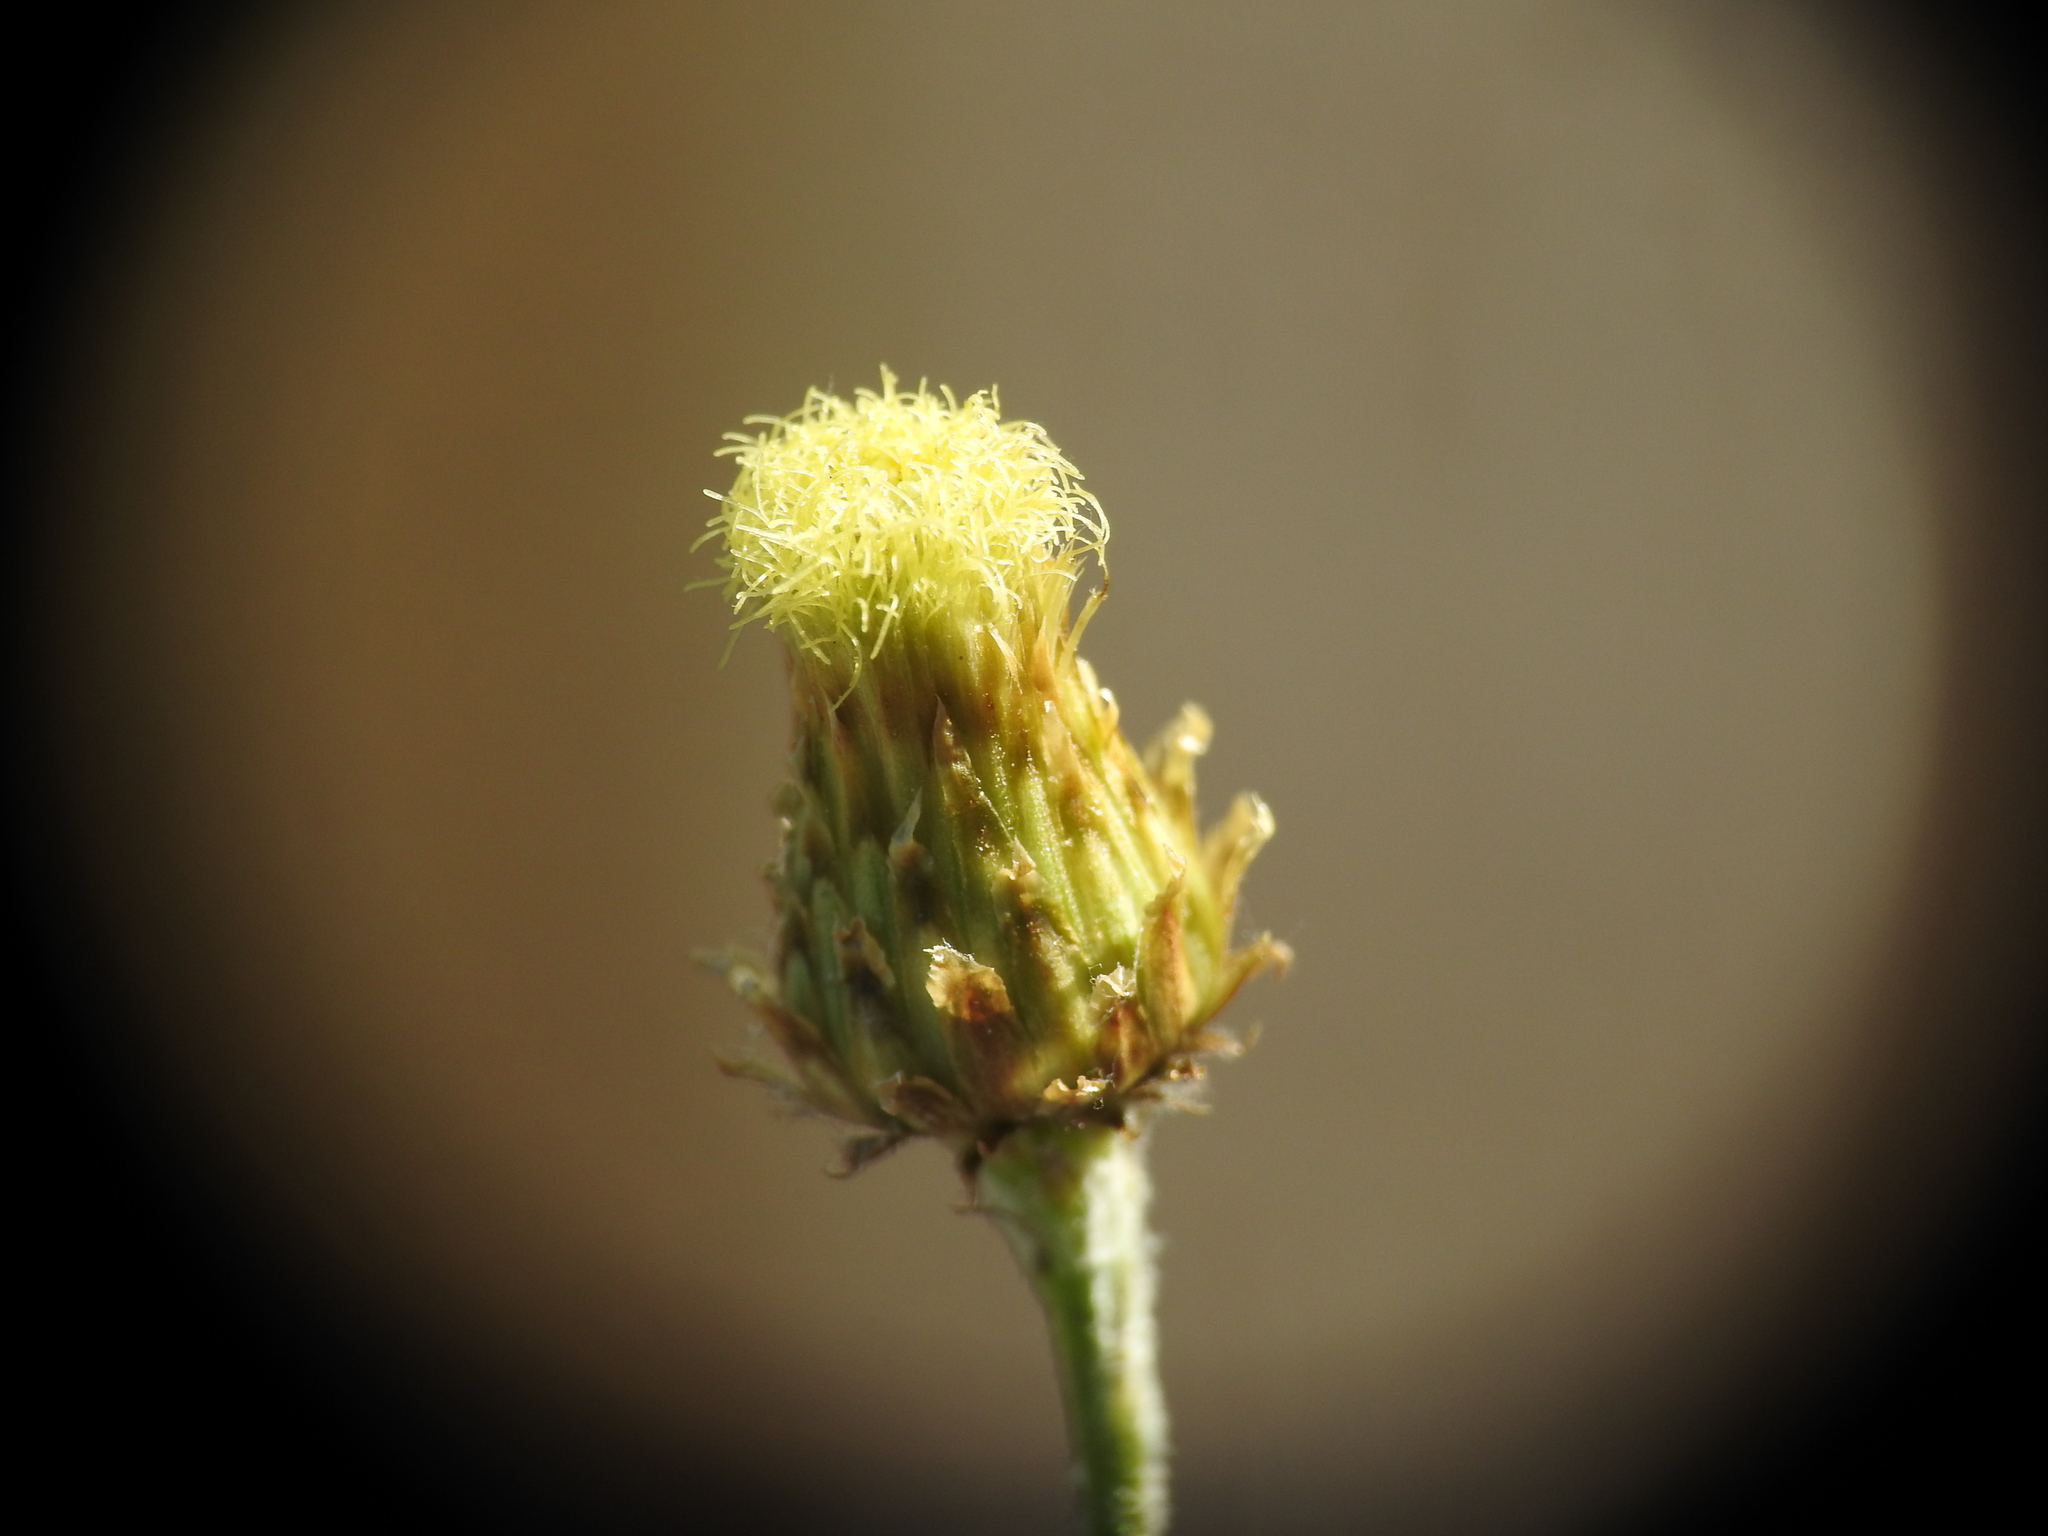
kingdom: Plantae
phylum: Tracheophyta
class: Magnoliopsida
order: Asterales
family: Asteraceae
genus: Phagnalon
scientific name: Phagnalon saxatile
